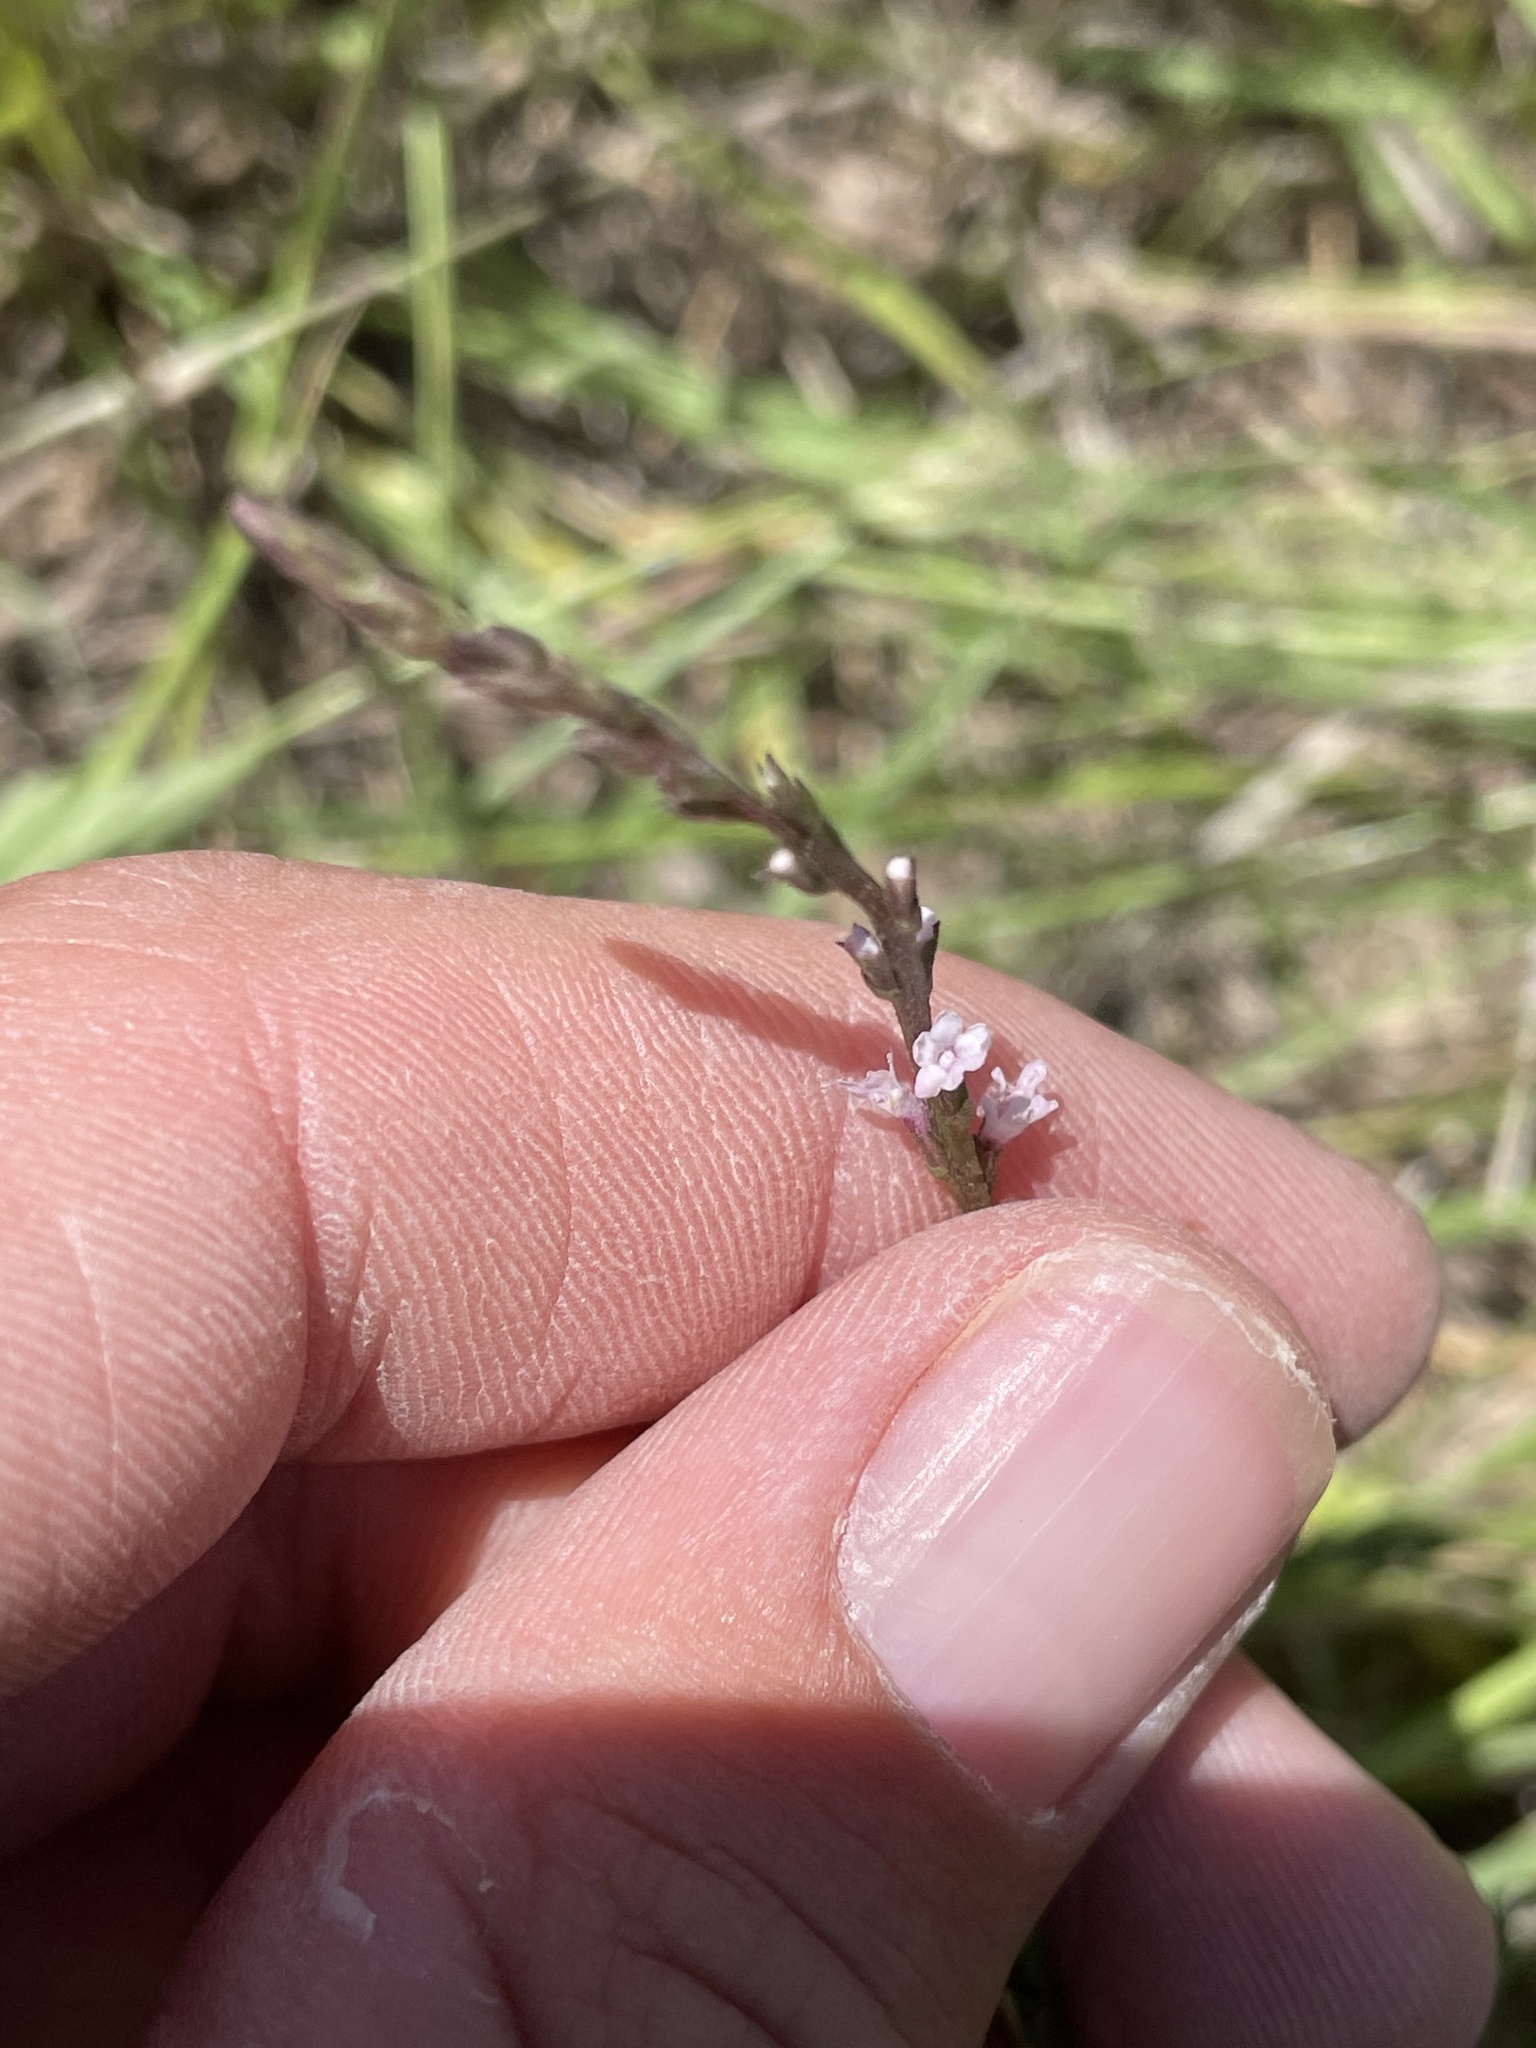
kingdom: Plantae
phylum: Tracheophyta
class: Magnoliopsida
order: Lamiales
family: Verbenaceae
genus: Verbena
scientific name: Verbena halei
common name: Texas vervain
